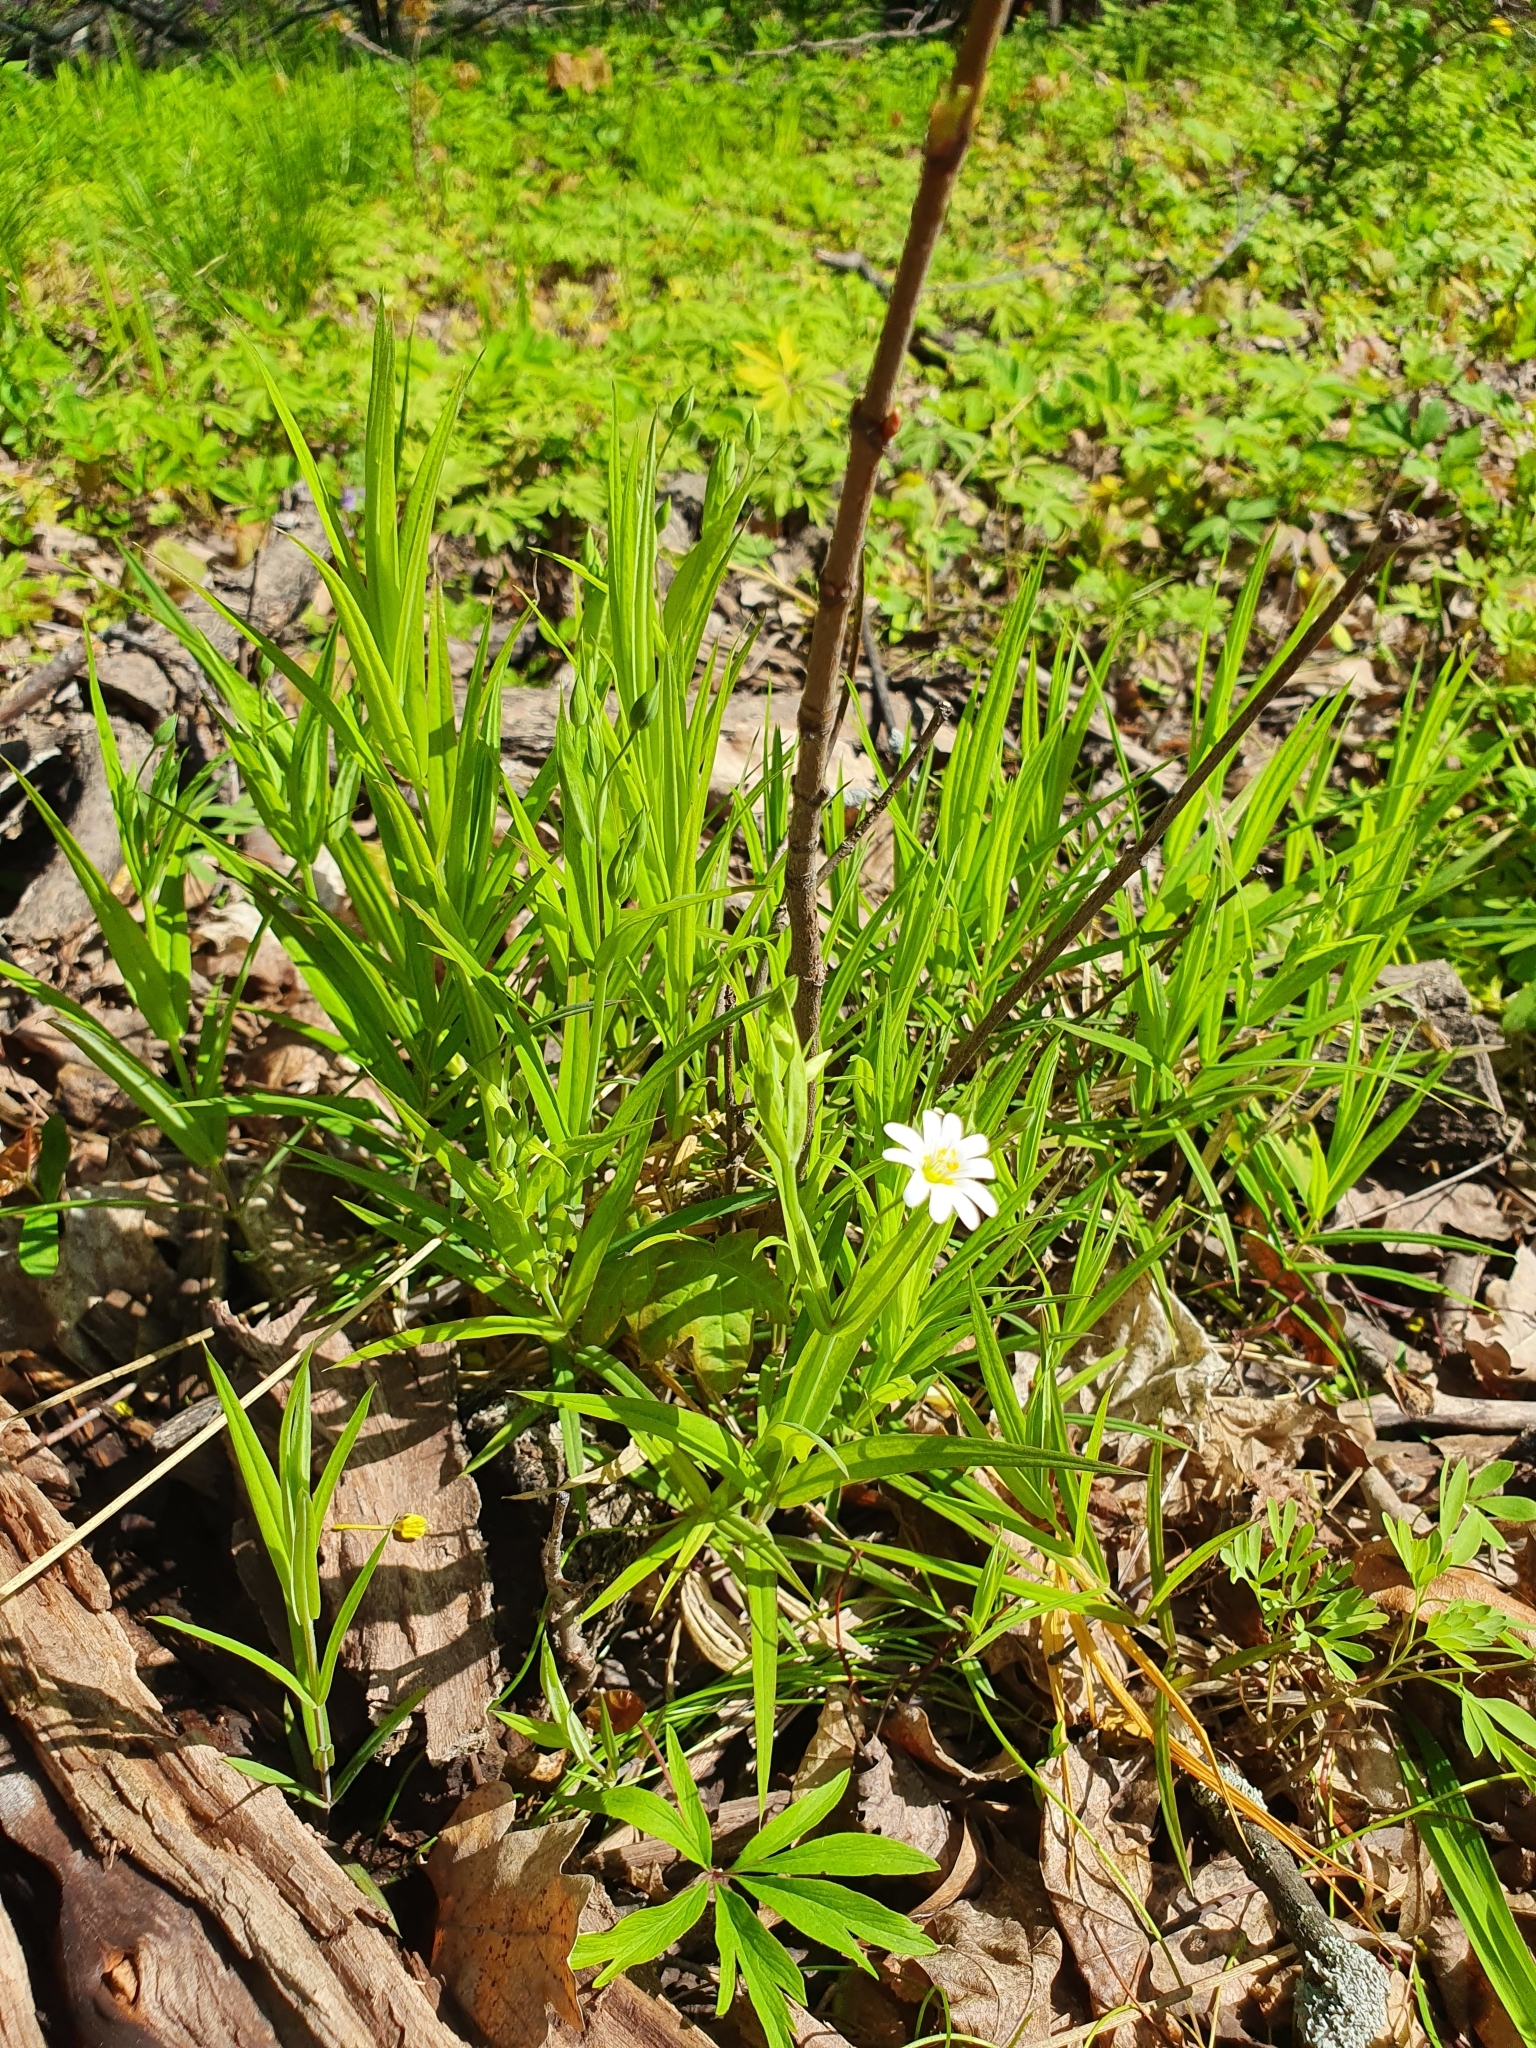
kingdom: Plantae
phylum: Tracheophyta
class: Magnoliopsida
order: Caryophyllales
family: Caryophyllaceae
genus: Rabelera
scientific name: Rabelera holostea
